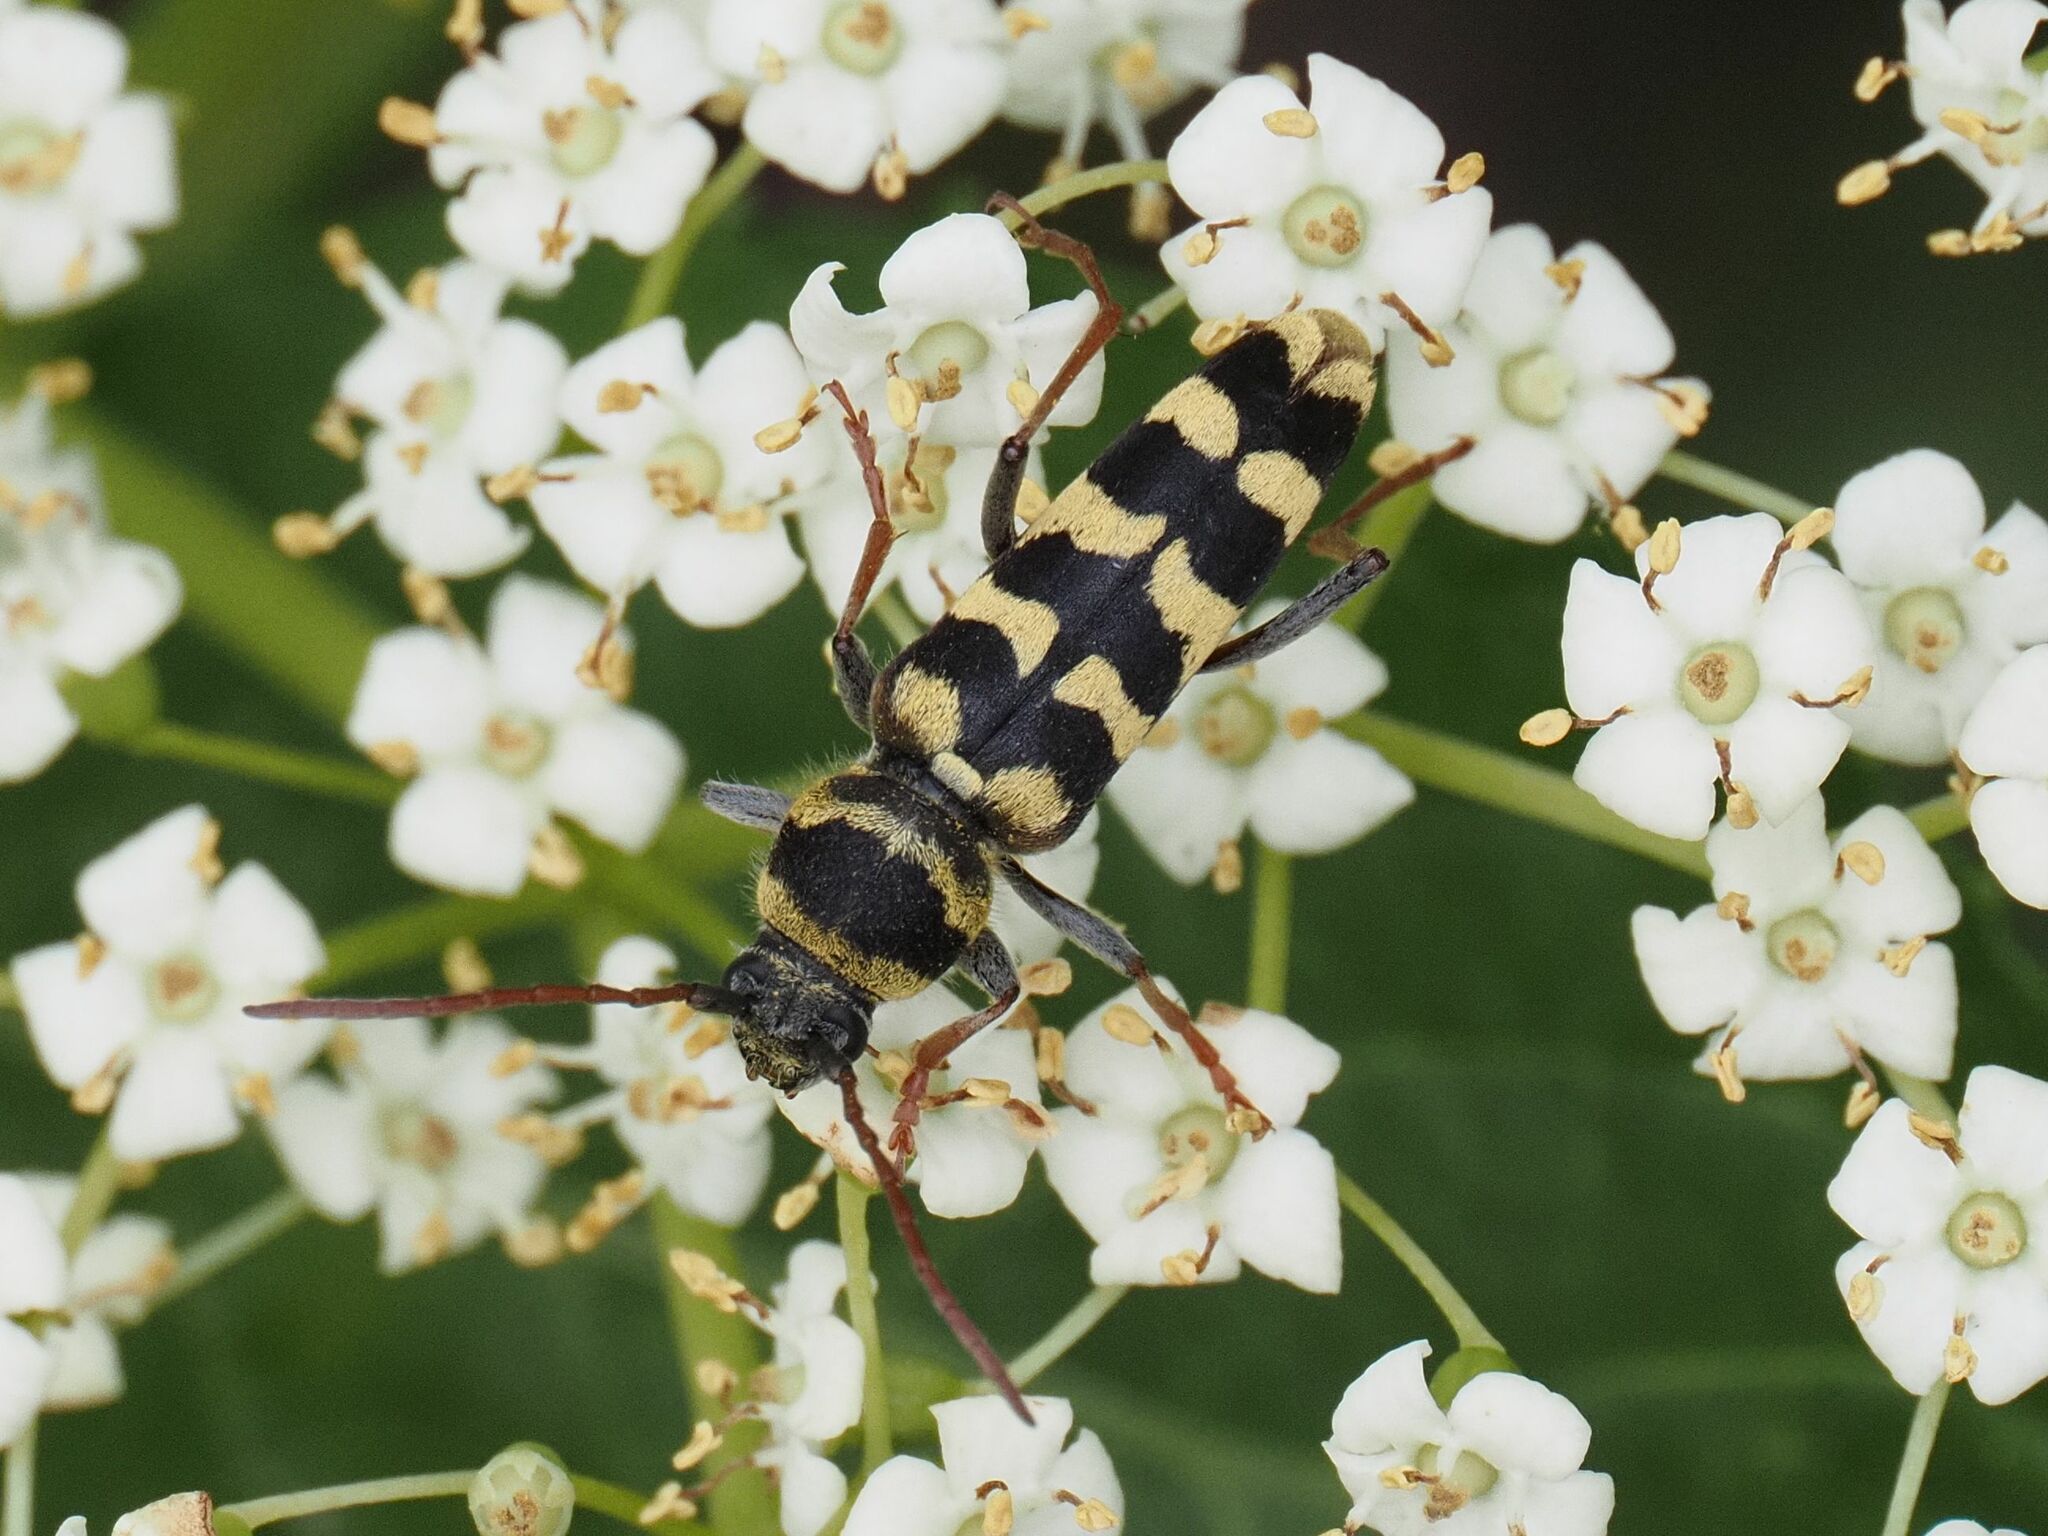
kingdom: Animalia
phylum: Arthropoda
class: Insecta
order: Coleoptera
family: Cerambycidae
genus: Plagionotus
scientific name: Plagionotus floralis
